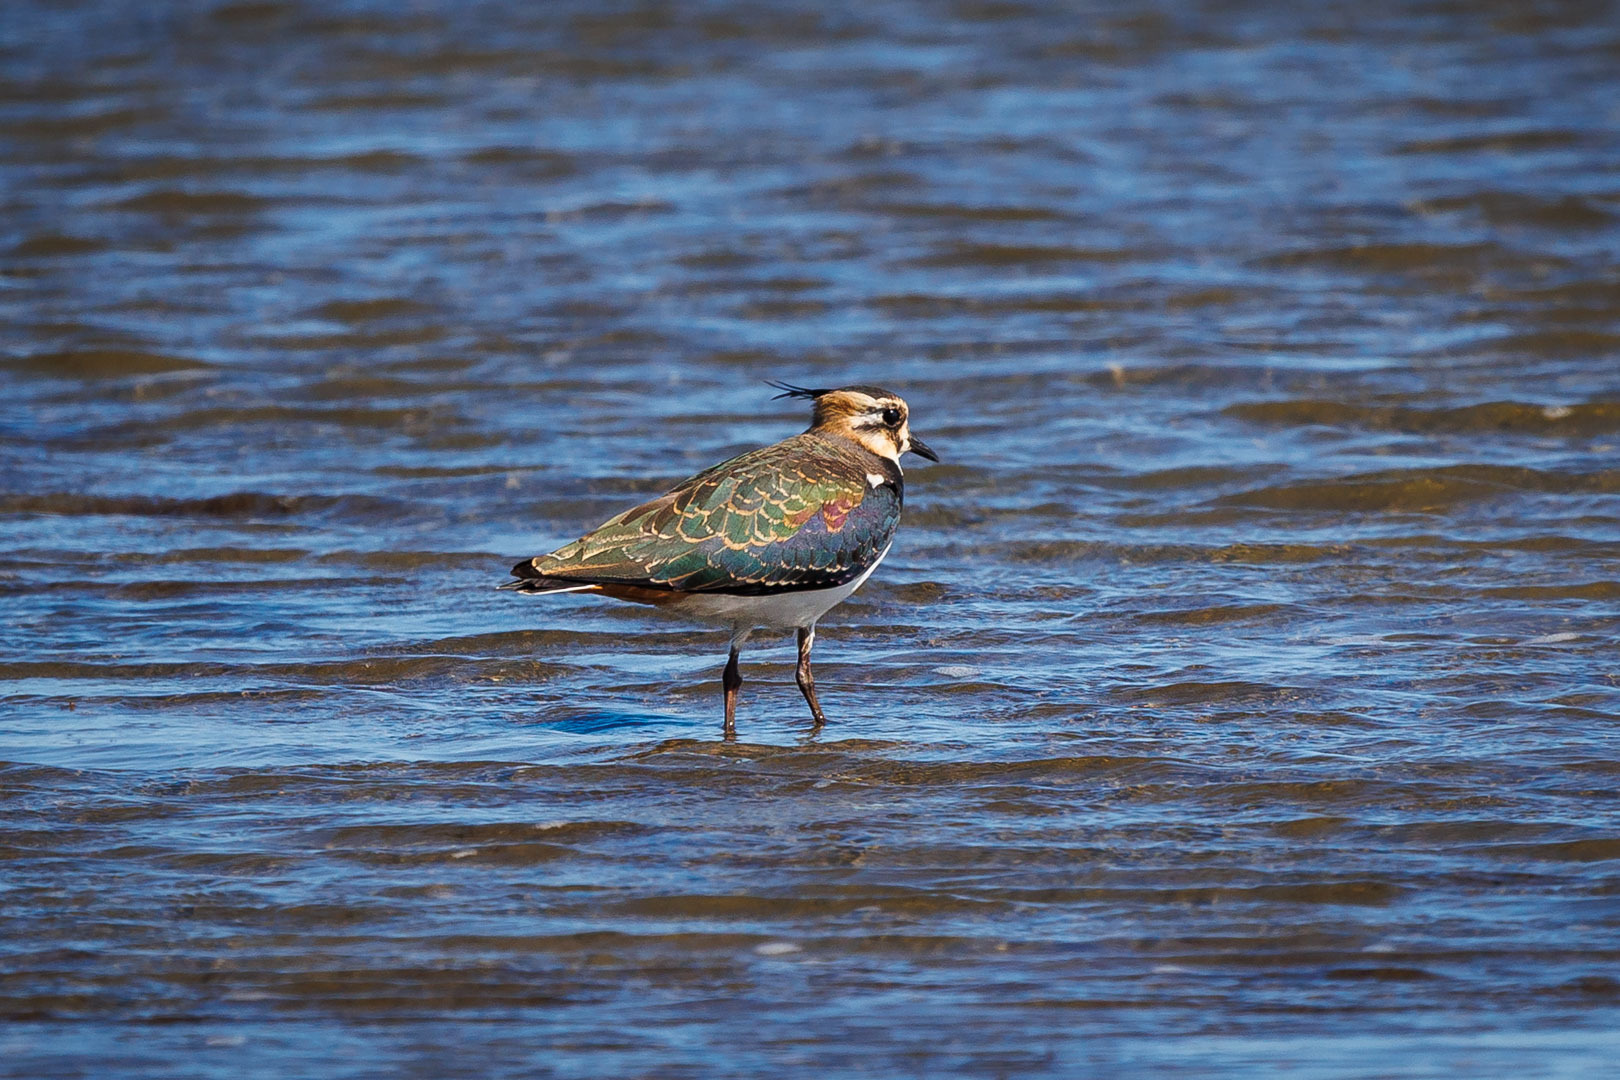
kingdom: Animalia
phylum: Chordata
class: Aves
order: Charadriiformes
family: Charadriidae
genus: Vanellus
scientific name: Vanellus vanellus
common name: Northern lapwing
